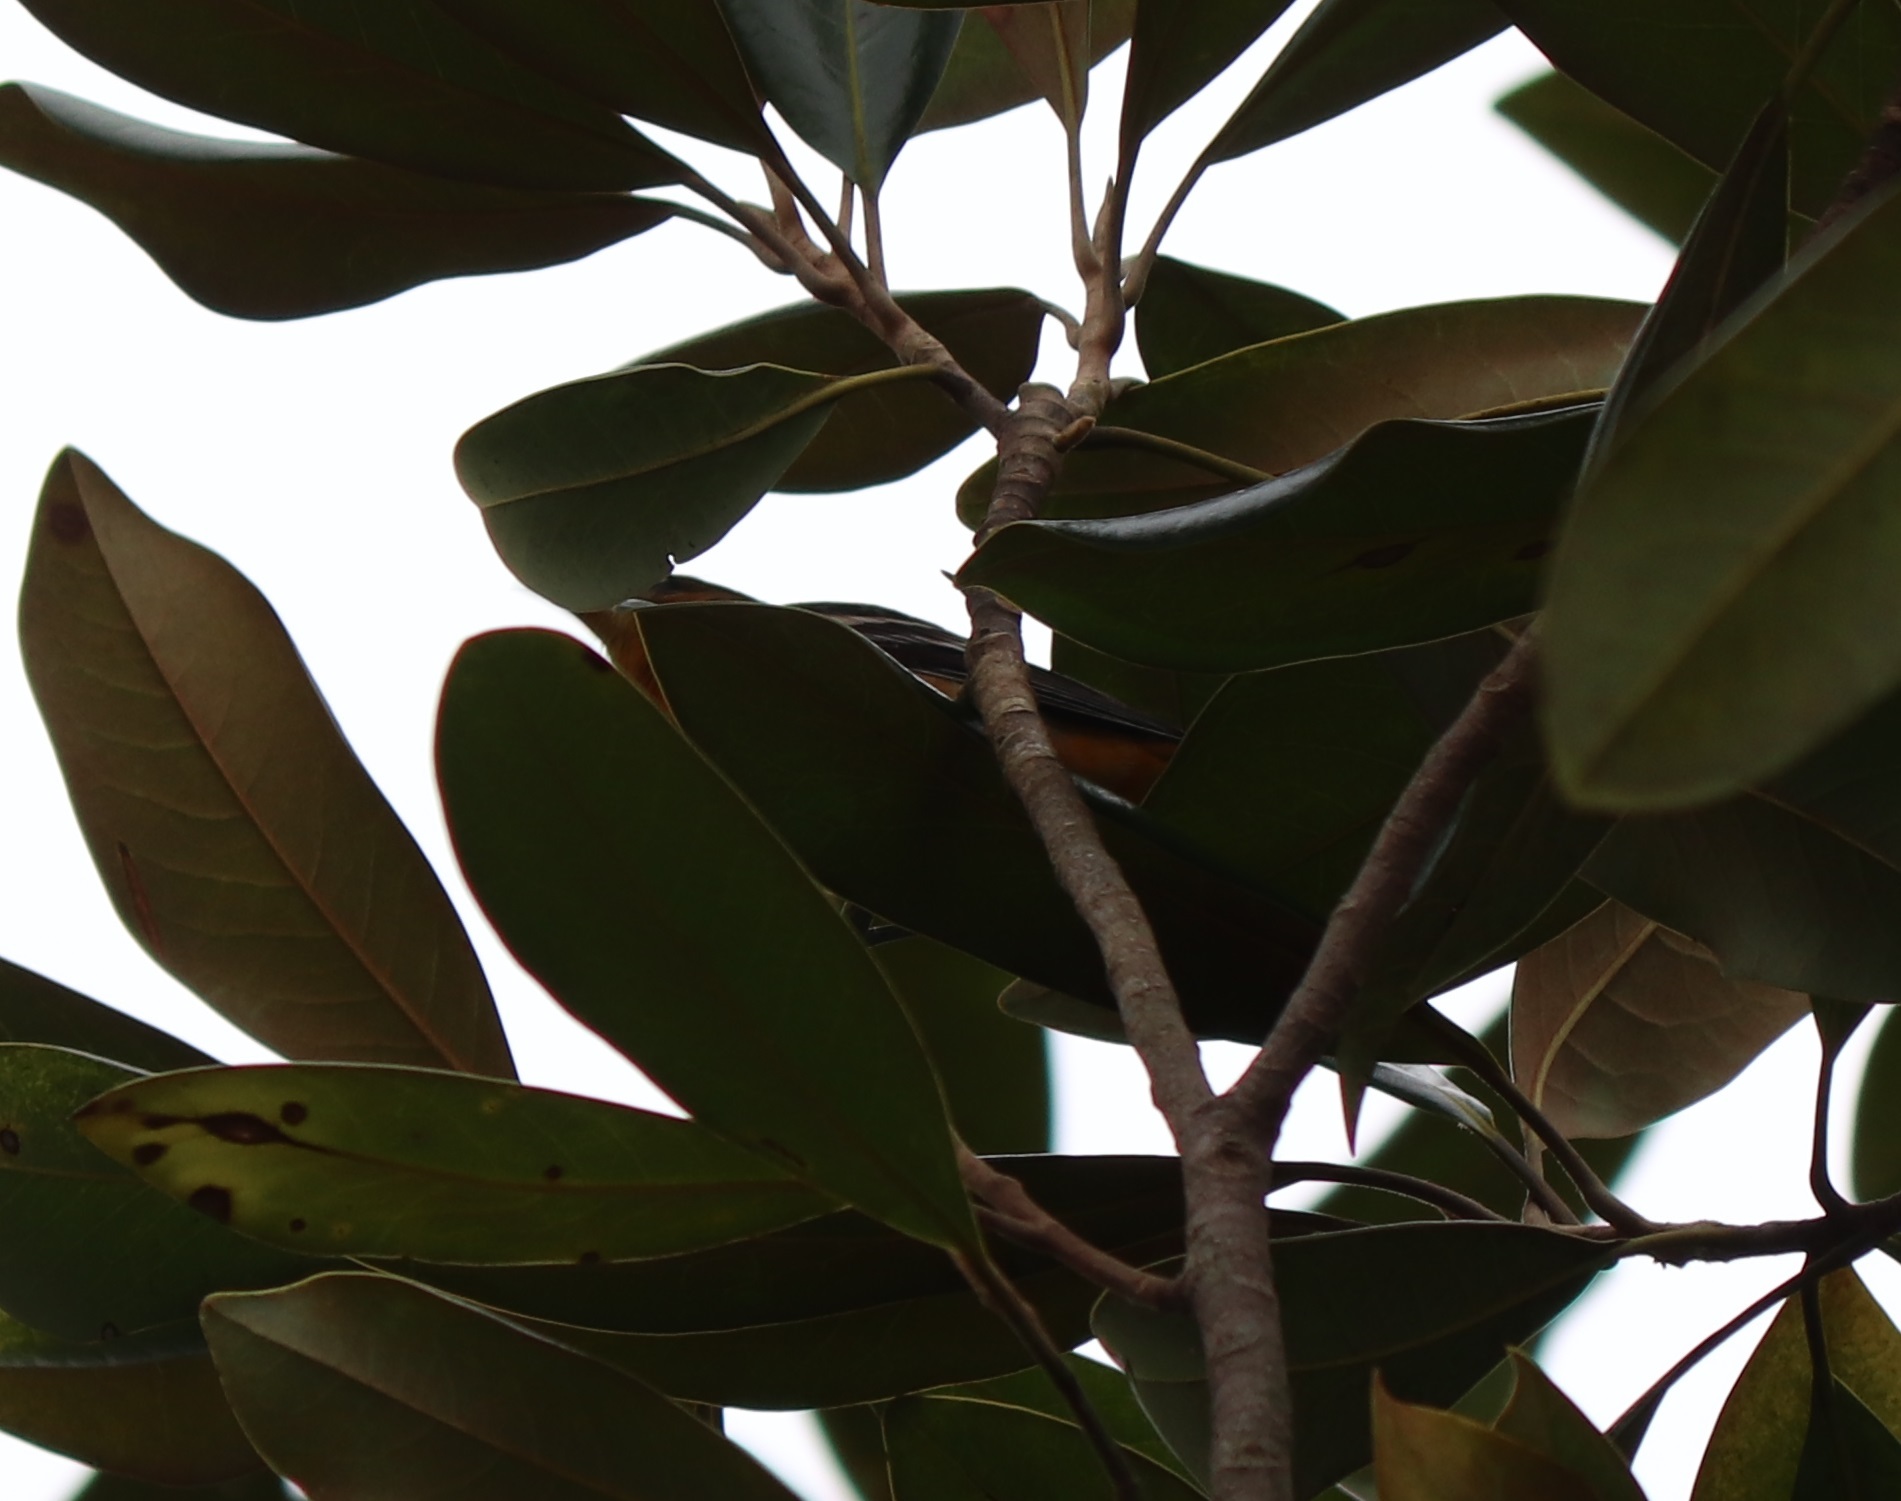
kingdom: Animalia
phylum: Chordata
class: Aves
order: Passeriformes
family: Icteridae
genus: Icterus
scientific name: Icterus galbula
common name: Baltimore oriole
